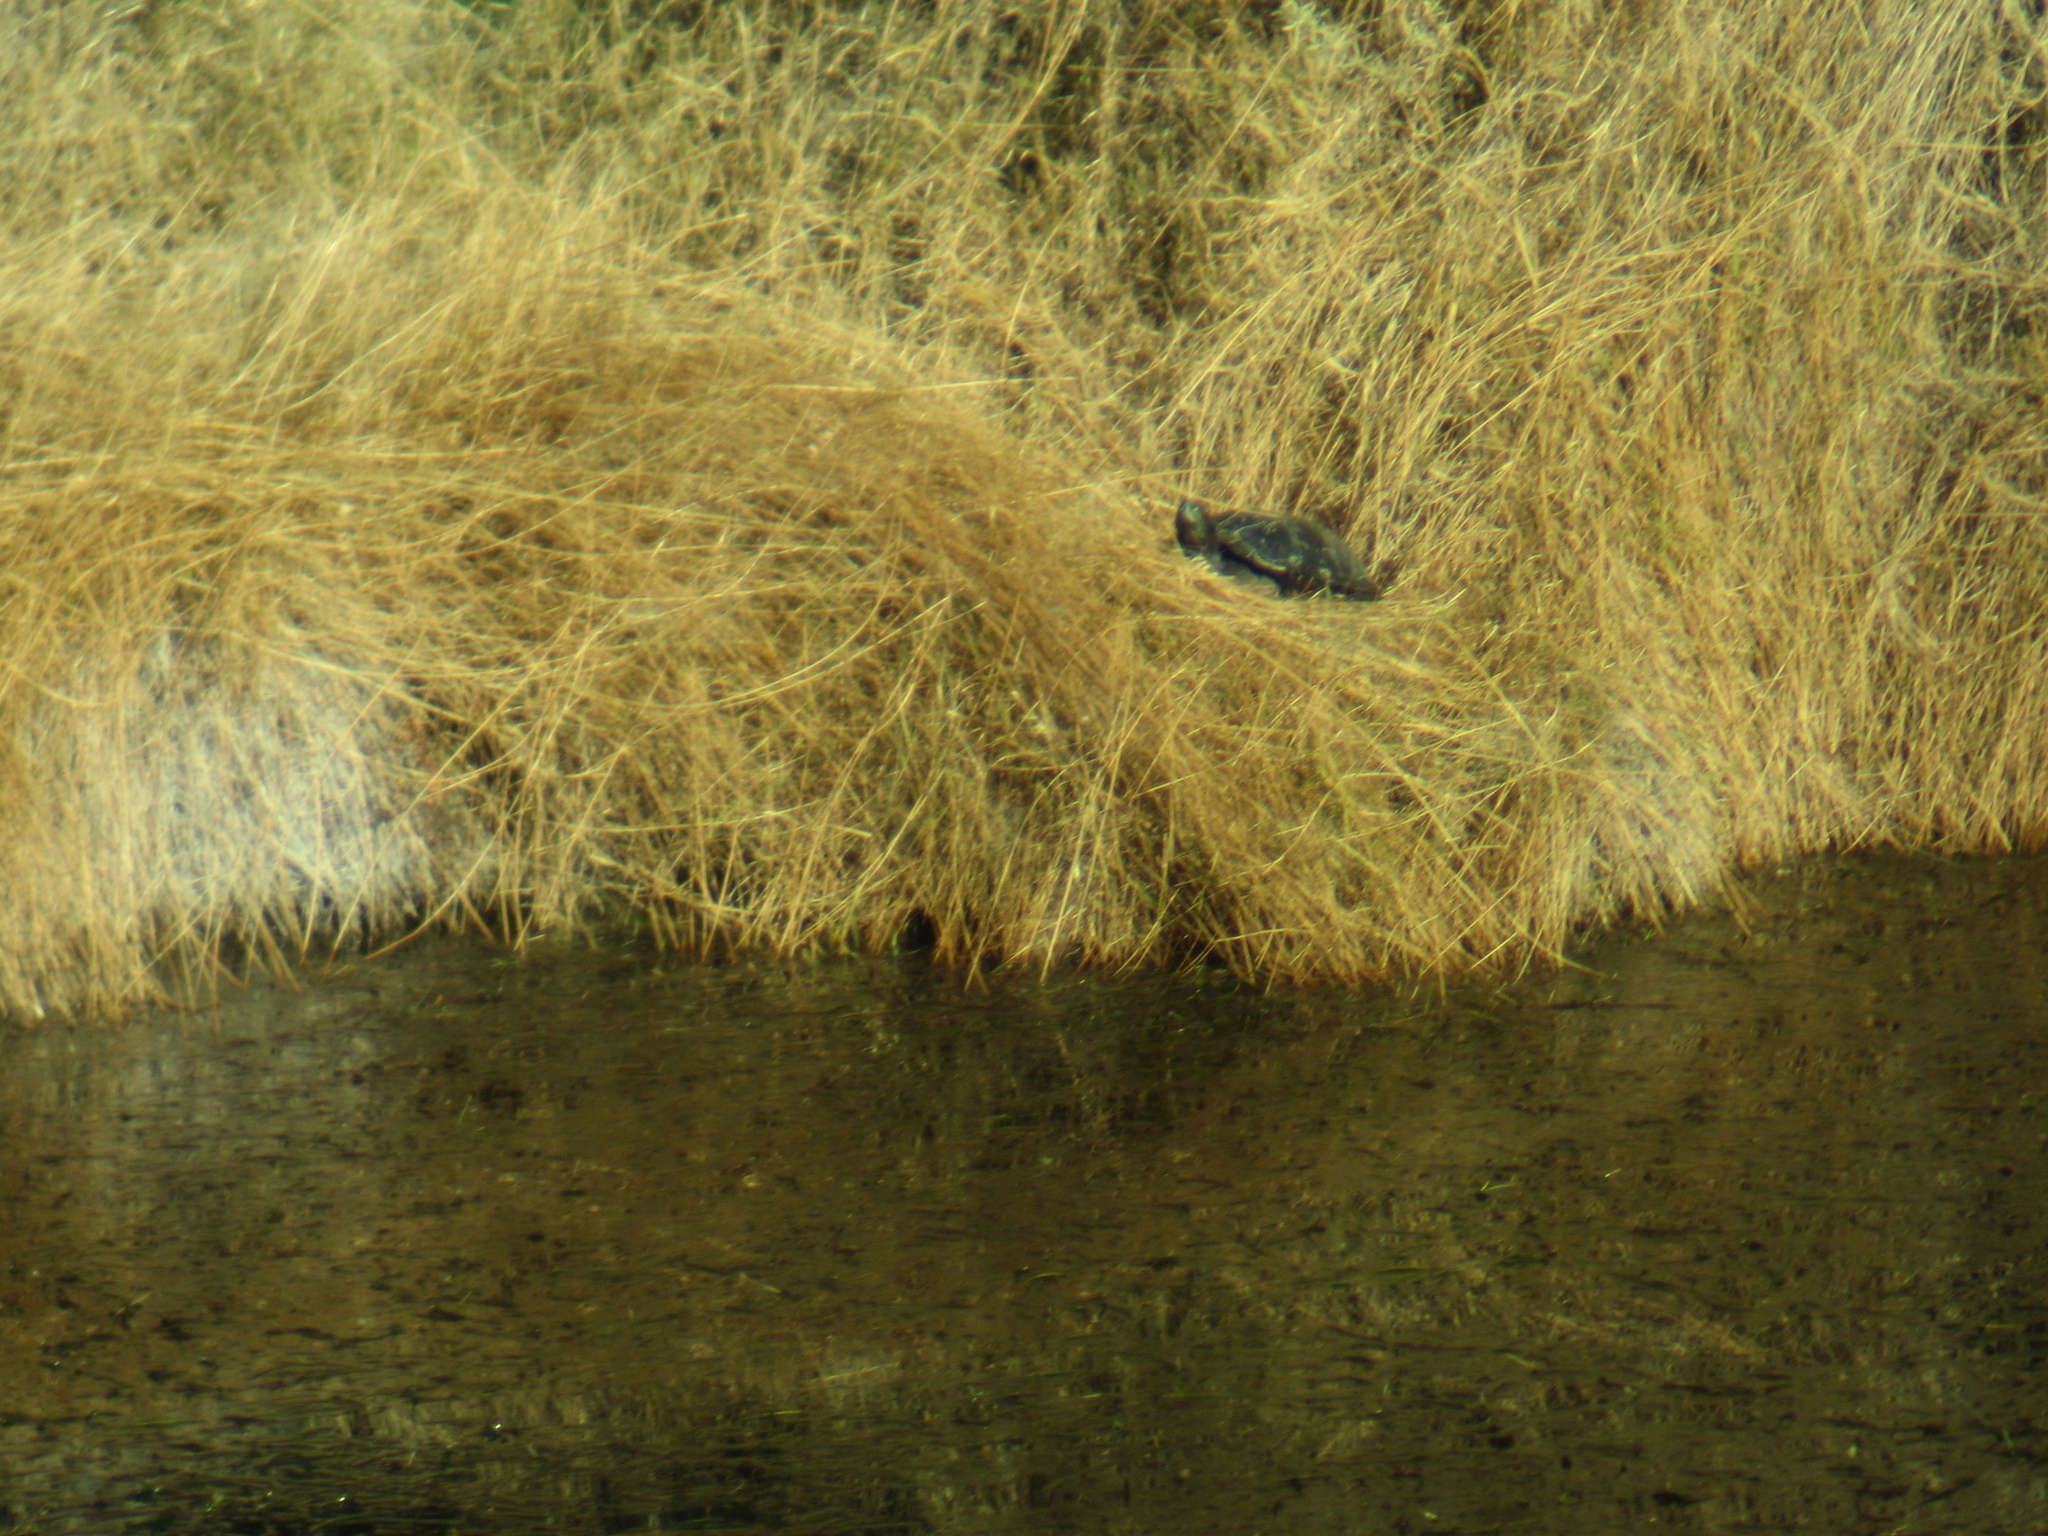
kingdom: Animalia
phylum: Chordata
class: Testudines
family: Kinosternidae
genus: Kinosternon
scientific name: Kinosternon sonoriense
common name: Sonora mud turtle
